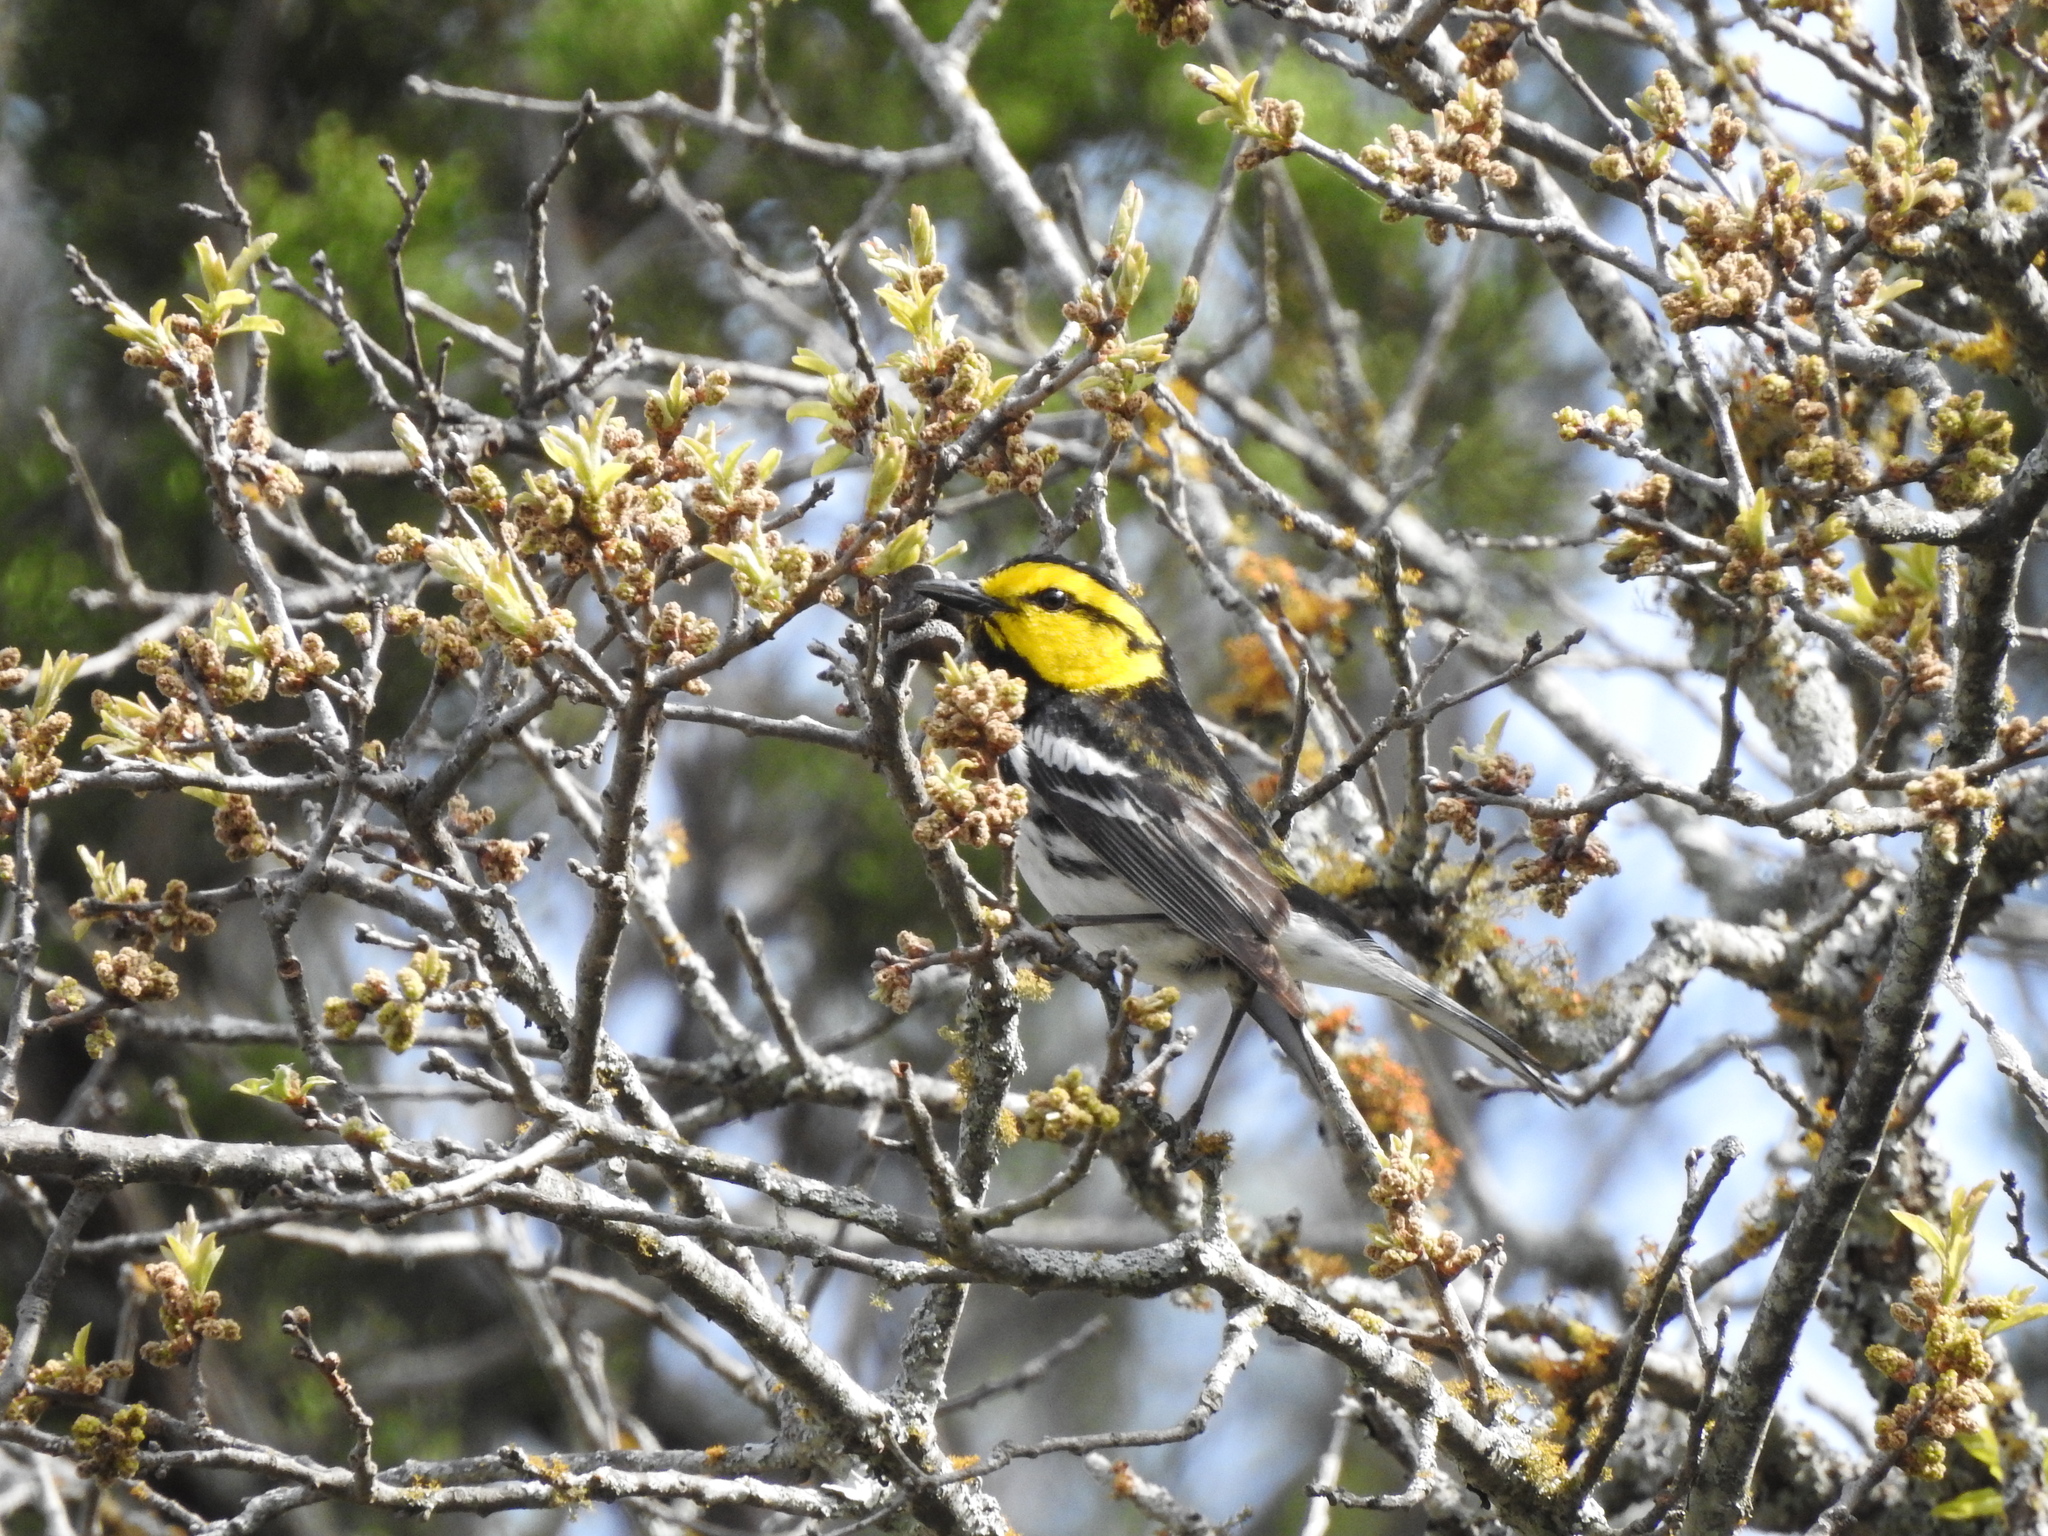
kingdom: Animalia
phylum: Chordata
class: Aves
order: Passeriformes
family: Parulidae
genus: Setophaga
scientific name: Setophaga chrysoparia
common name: Golden-cheeked warbler
